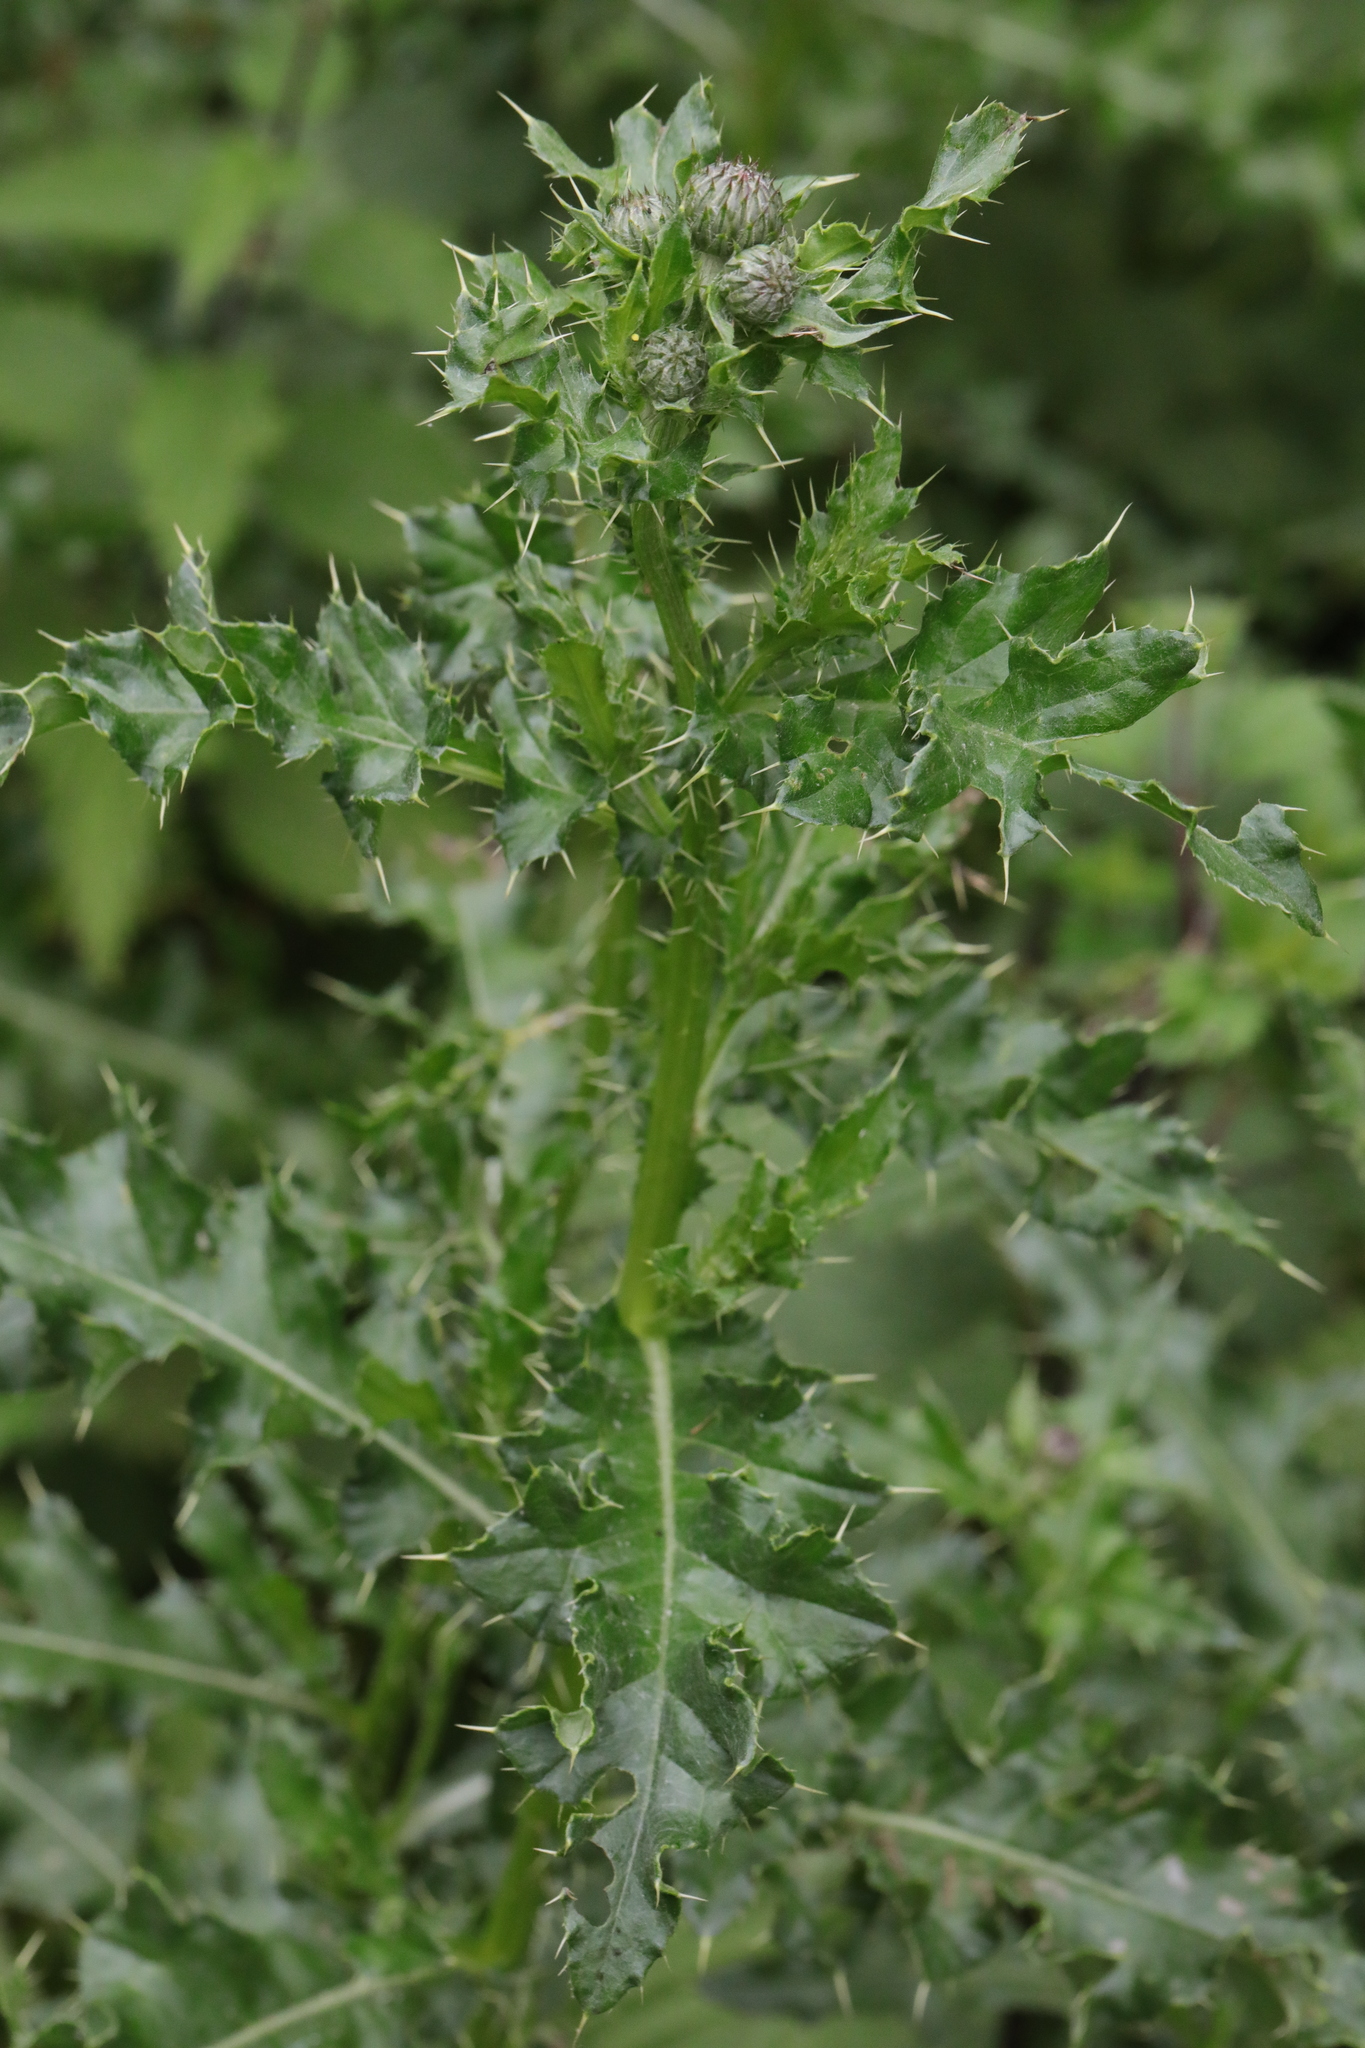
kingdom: Plantae
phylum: Tracheophyta
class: Magnoliopsida
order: Asterales
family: Asteraceae
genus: Cirsium
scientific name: Cirsium arvense
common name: Creeping thistle
